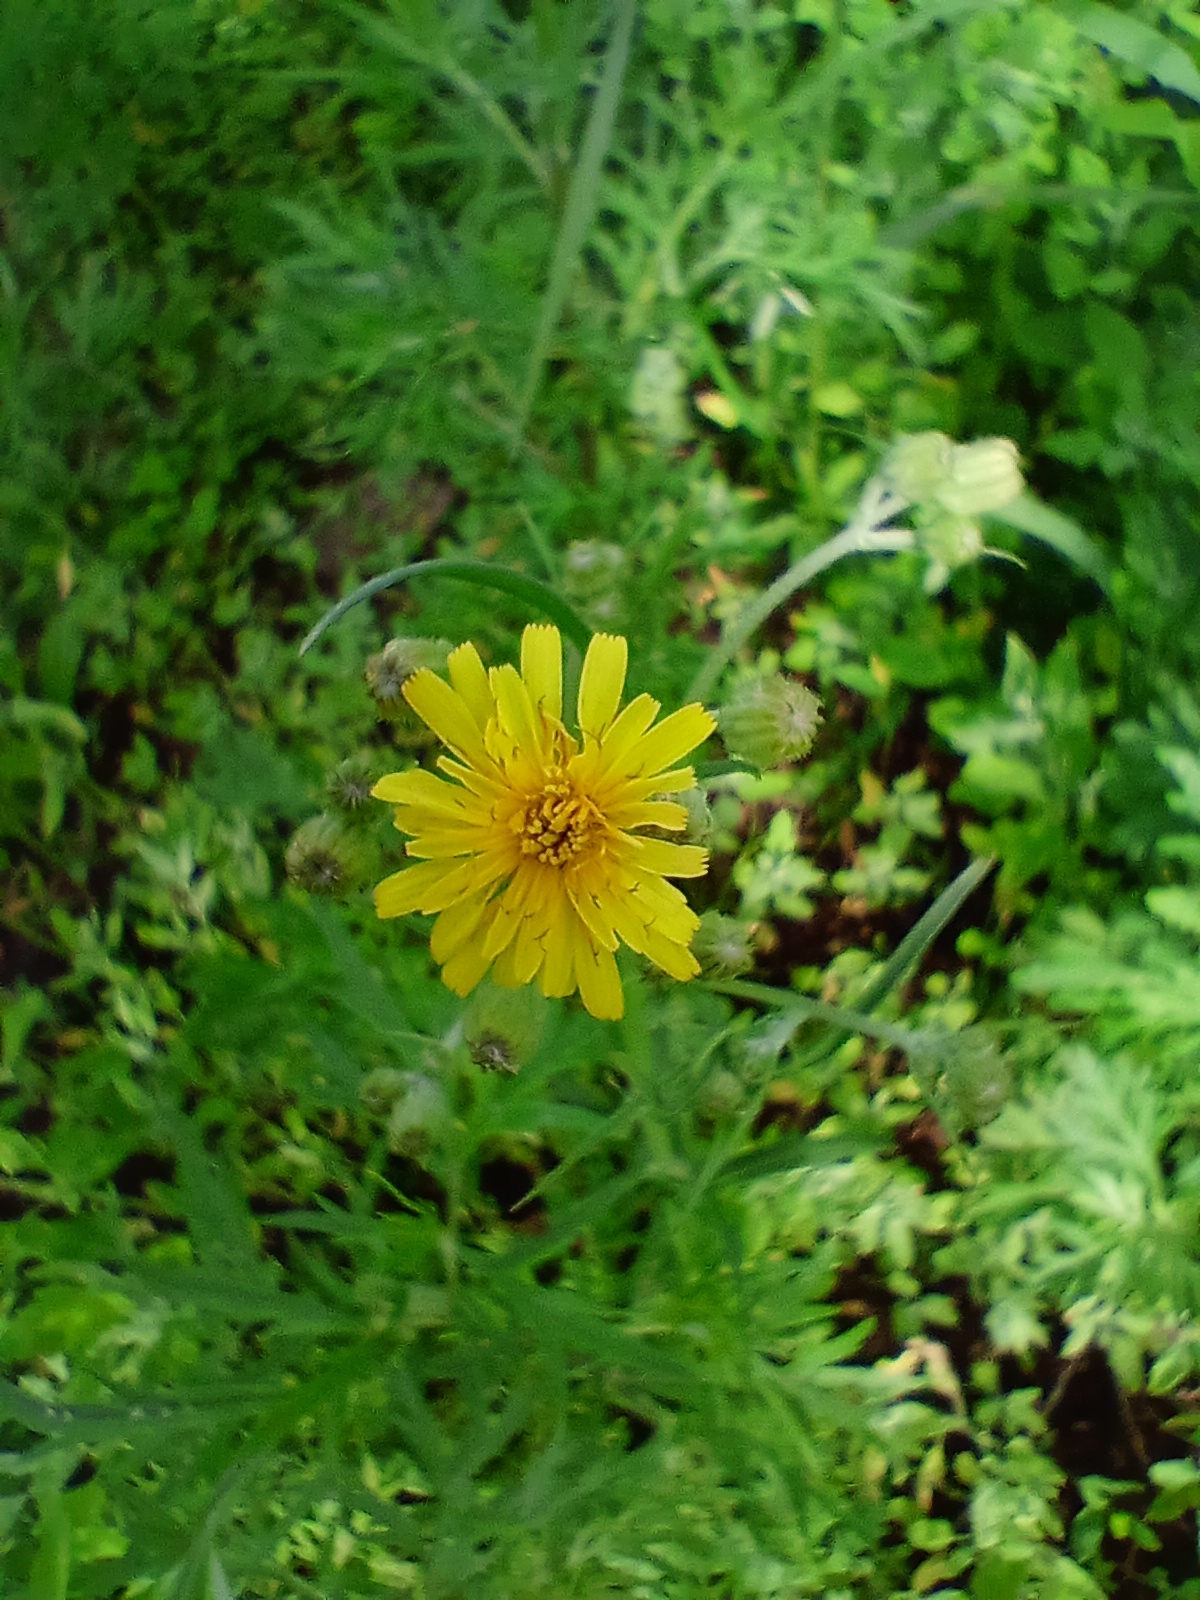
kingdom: Plantae
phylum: Tracheophyta
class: Magnoliopsida
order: Asterales
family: Asteraceae
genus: Crepis
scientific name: Crepis tectorum
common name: Narrow-leaved hawk's-beard
